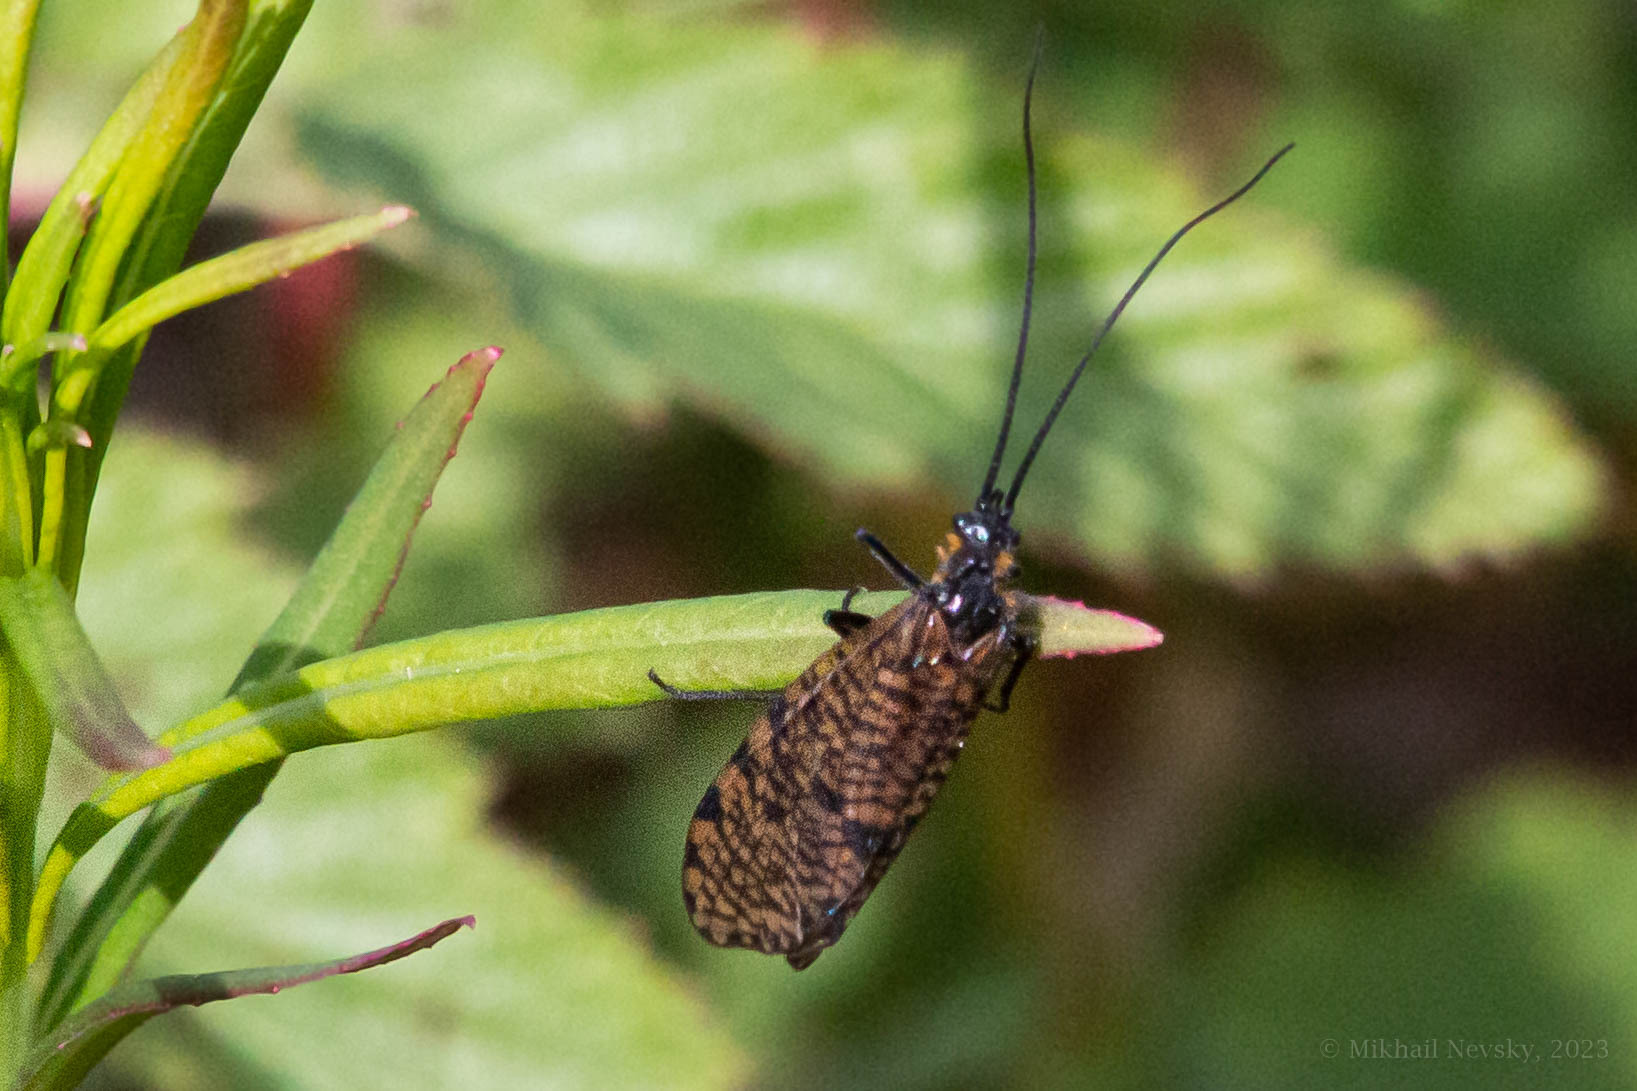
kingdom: Animalia
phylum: Arthropoda
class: Insecta
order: Trichoptera
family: Phryganeidae
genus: Oligostomis
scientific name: Oligostomis reticulata
